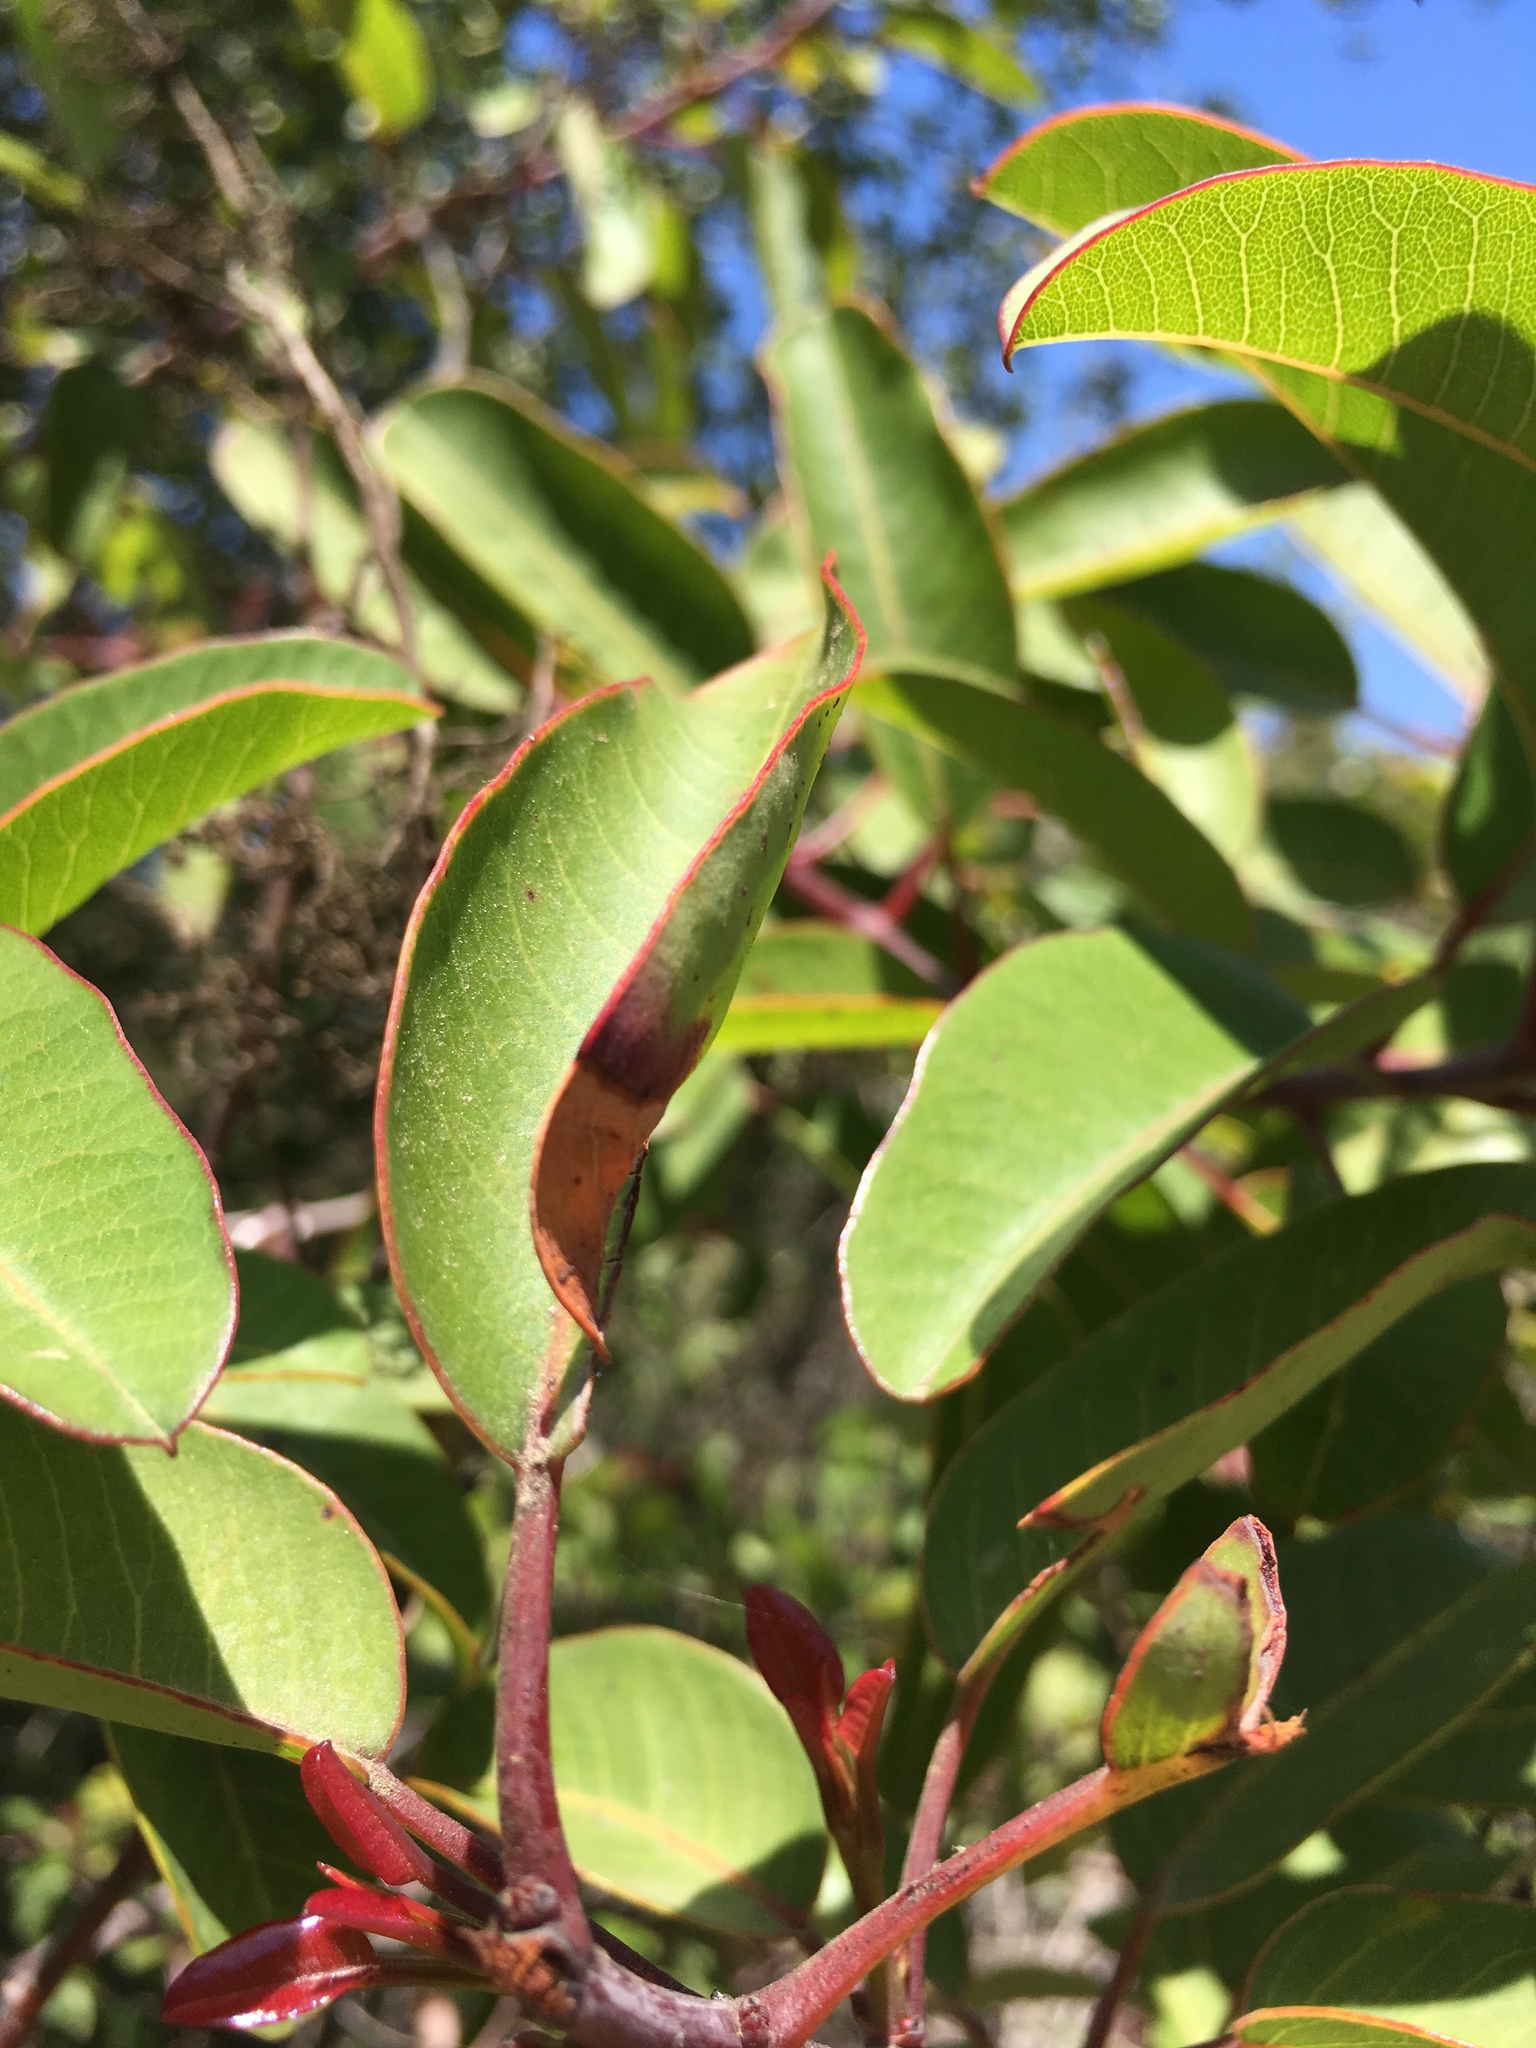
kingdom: Plantae
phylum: Tracheophyta
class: Magnoliopsida
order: Sapindales
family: Anacardiaceae
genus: Malosma
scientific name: Malosma laurina
